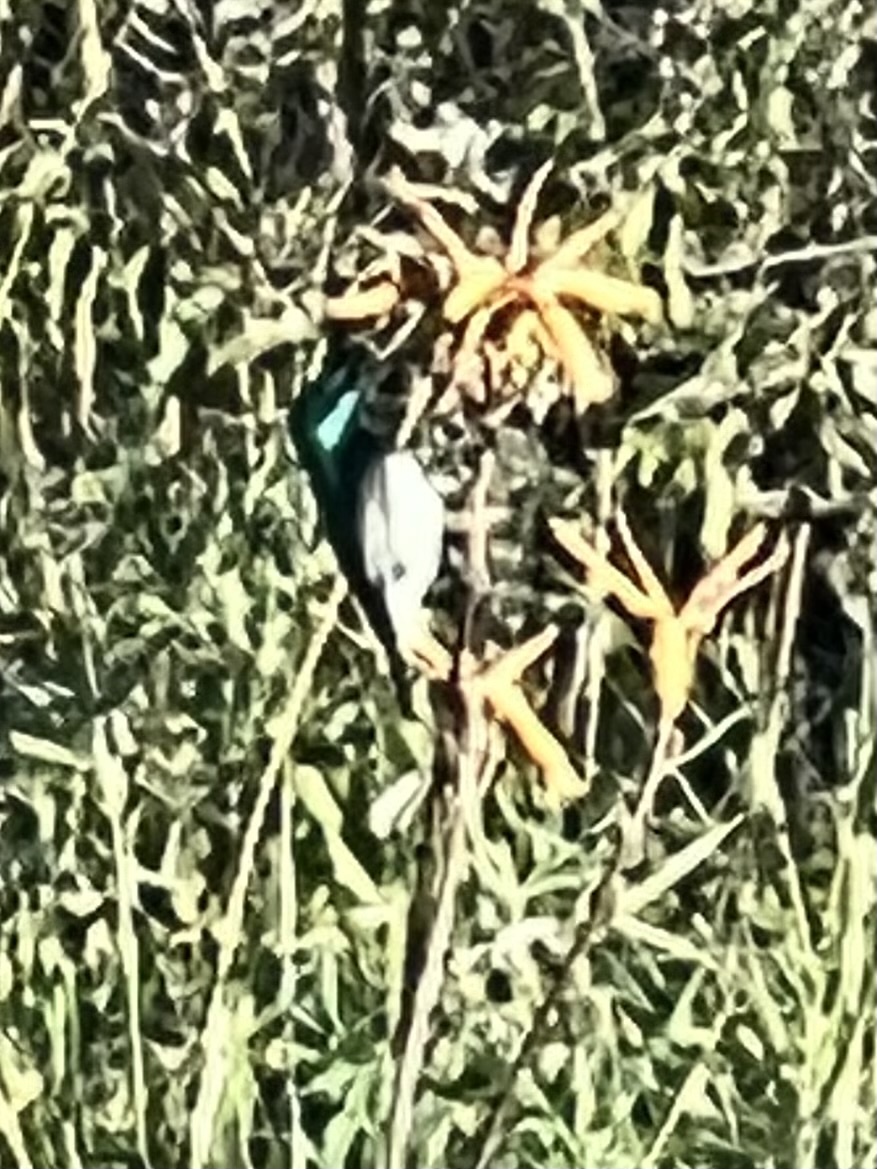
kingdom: Animalia
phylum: Chordata
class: Aves
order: Passeriformes
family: Nectariniidae
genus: Cinnyris
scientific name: Cinnyris chalybeus
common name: Southern double-collared sunbird
